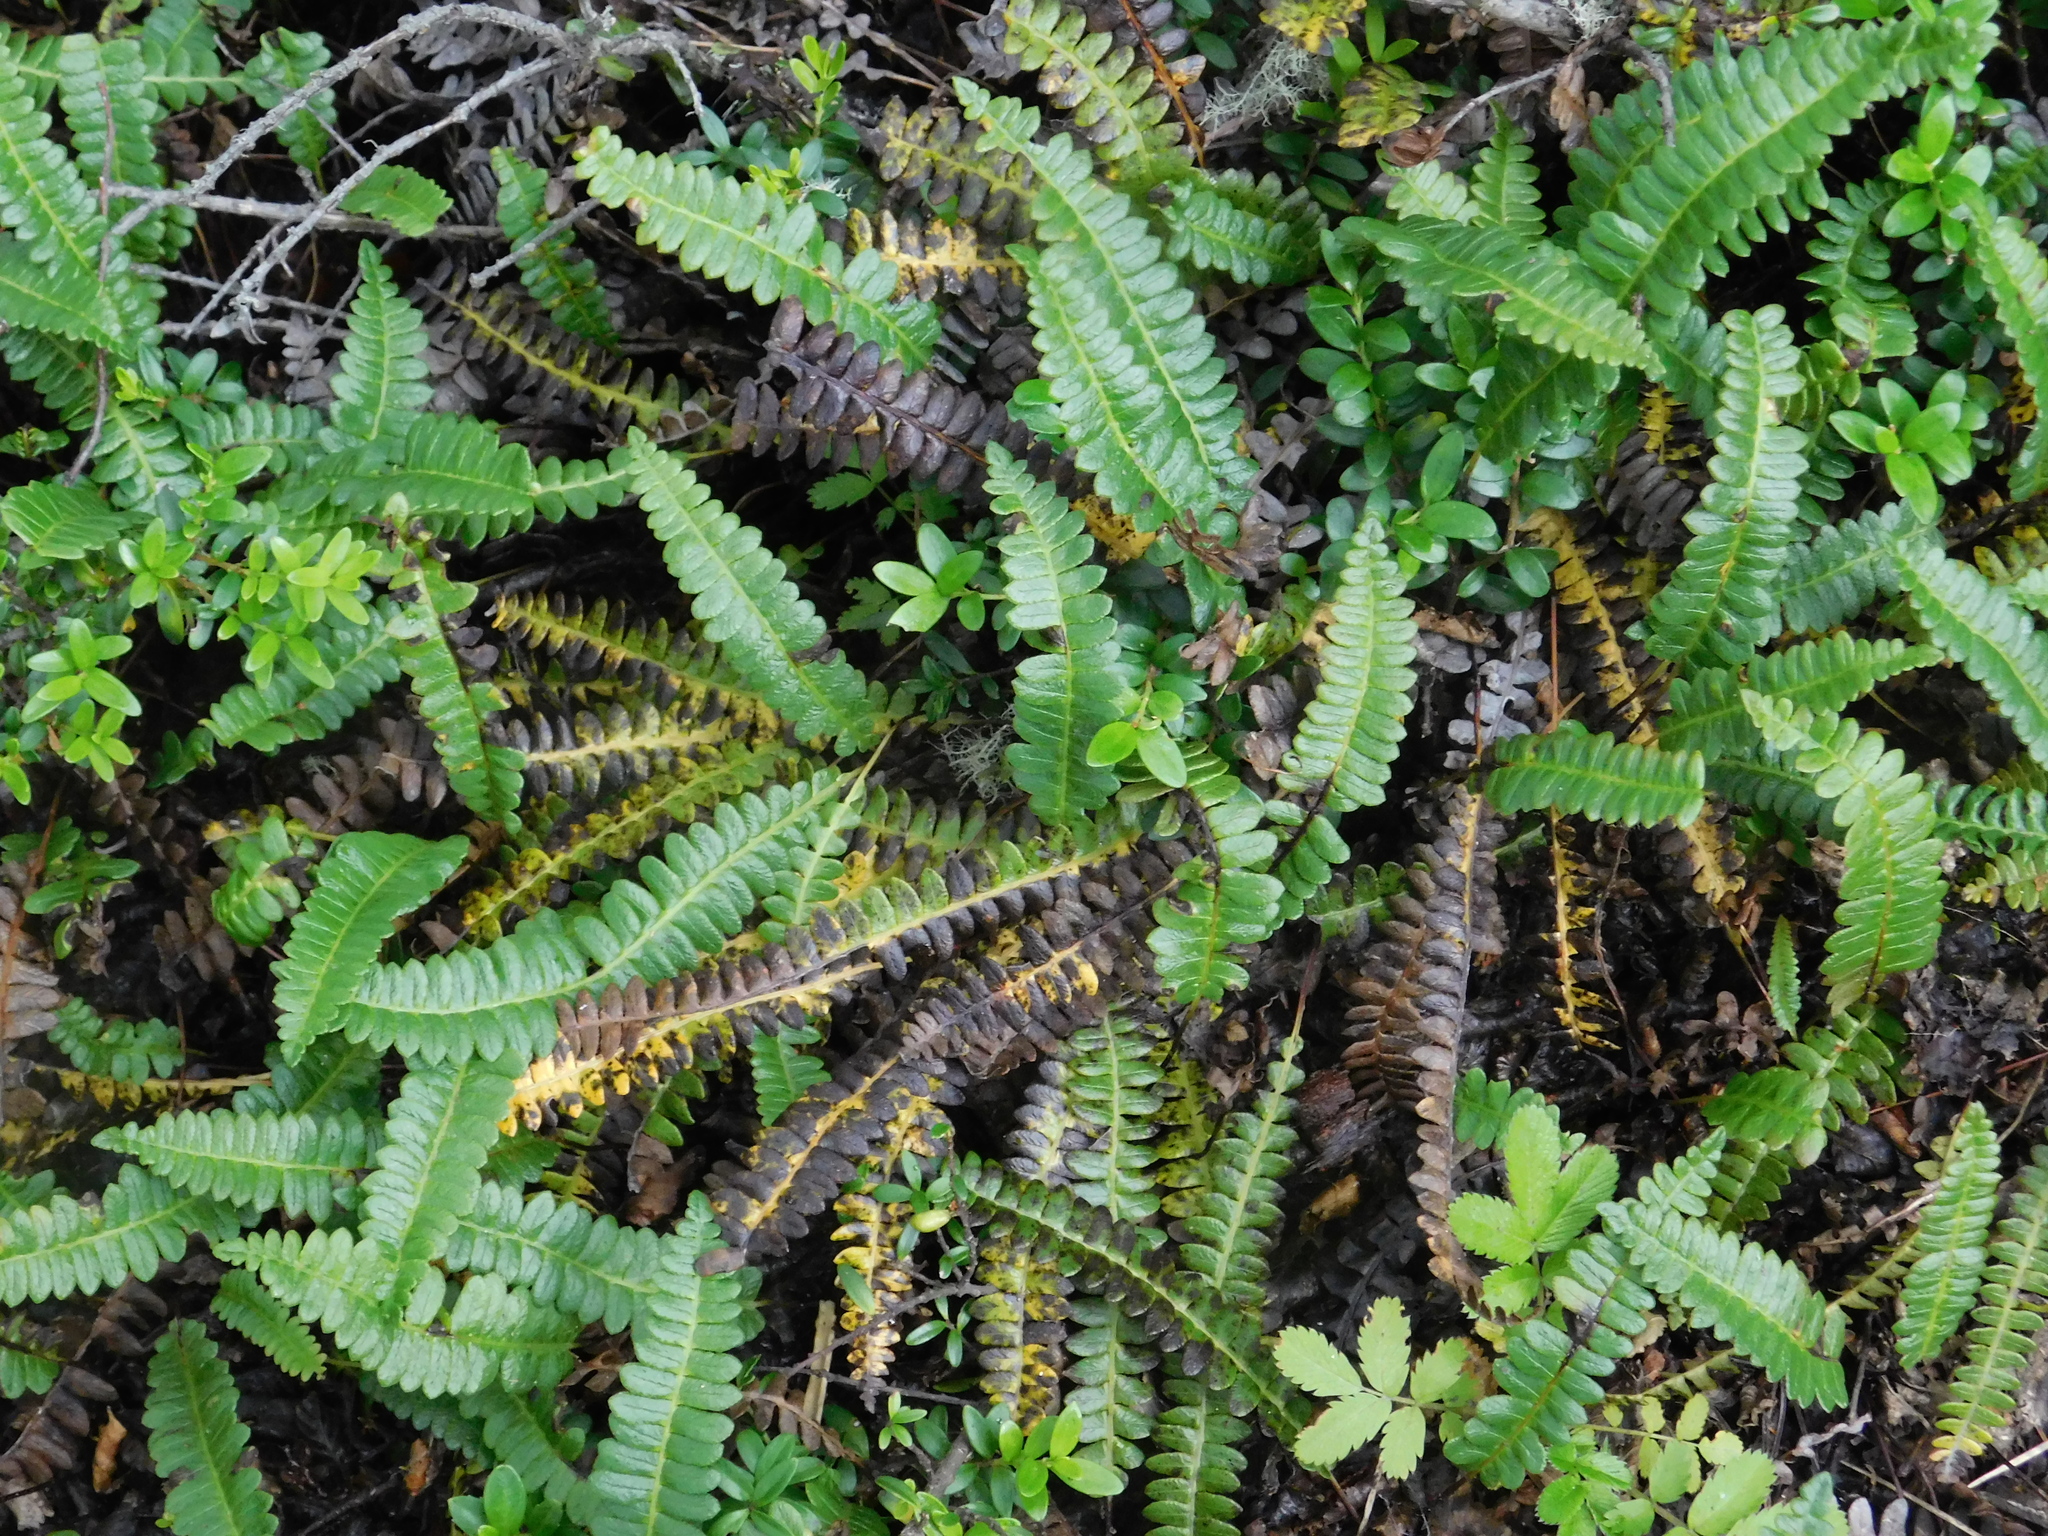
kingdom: Plantae
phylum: Tracheophyta
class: Polypodiopsida
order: Polypodiales
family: Blechnaceae
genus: Austroblechnum
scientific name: Austroblechnum penna-marina
